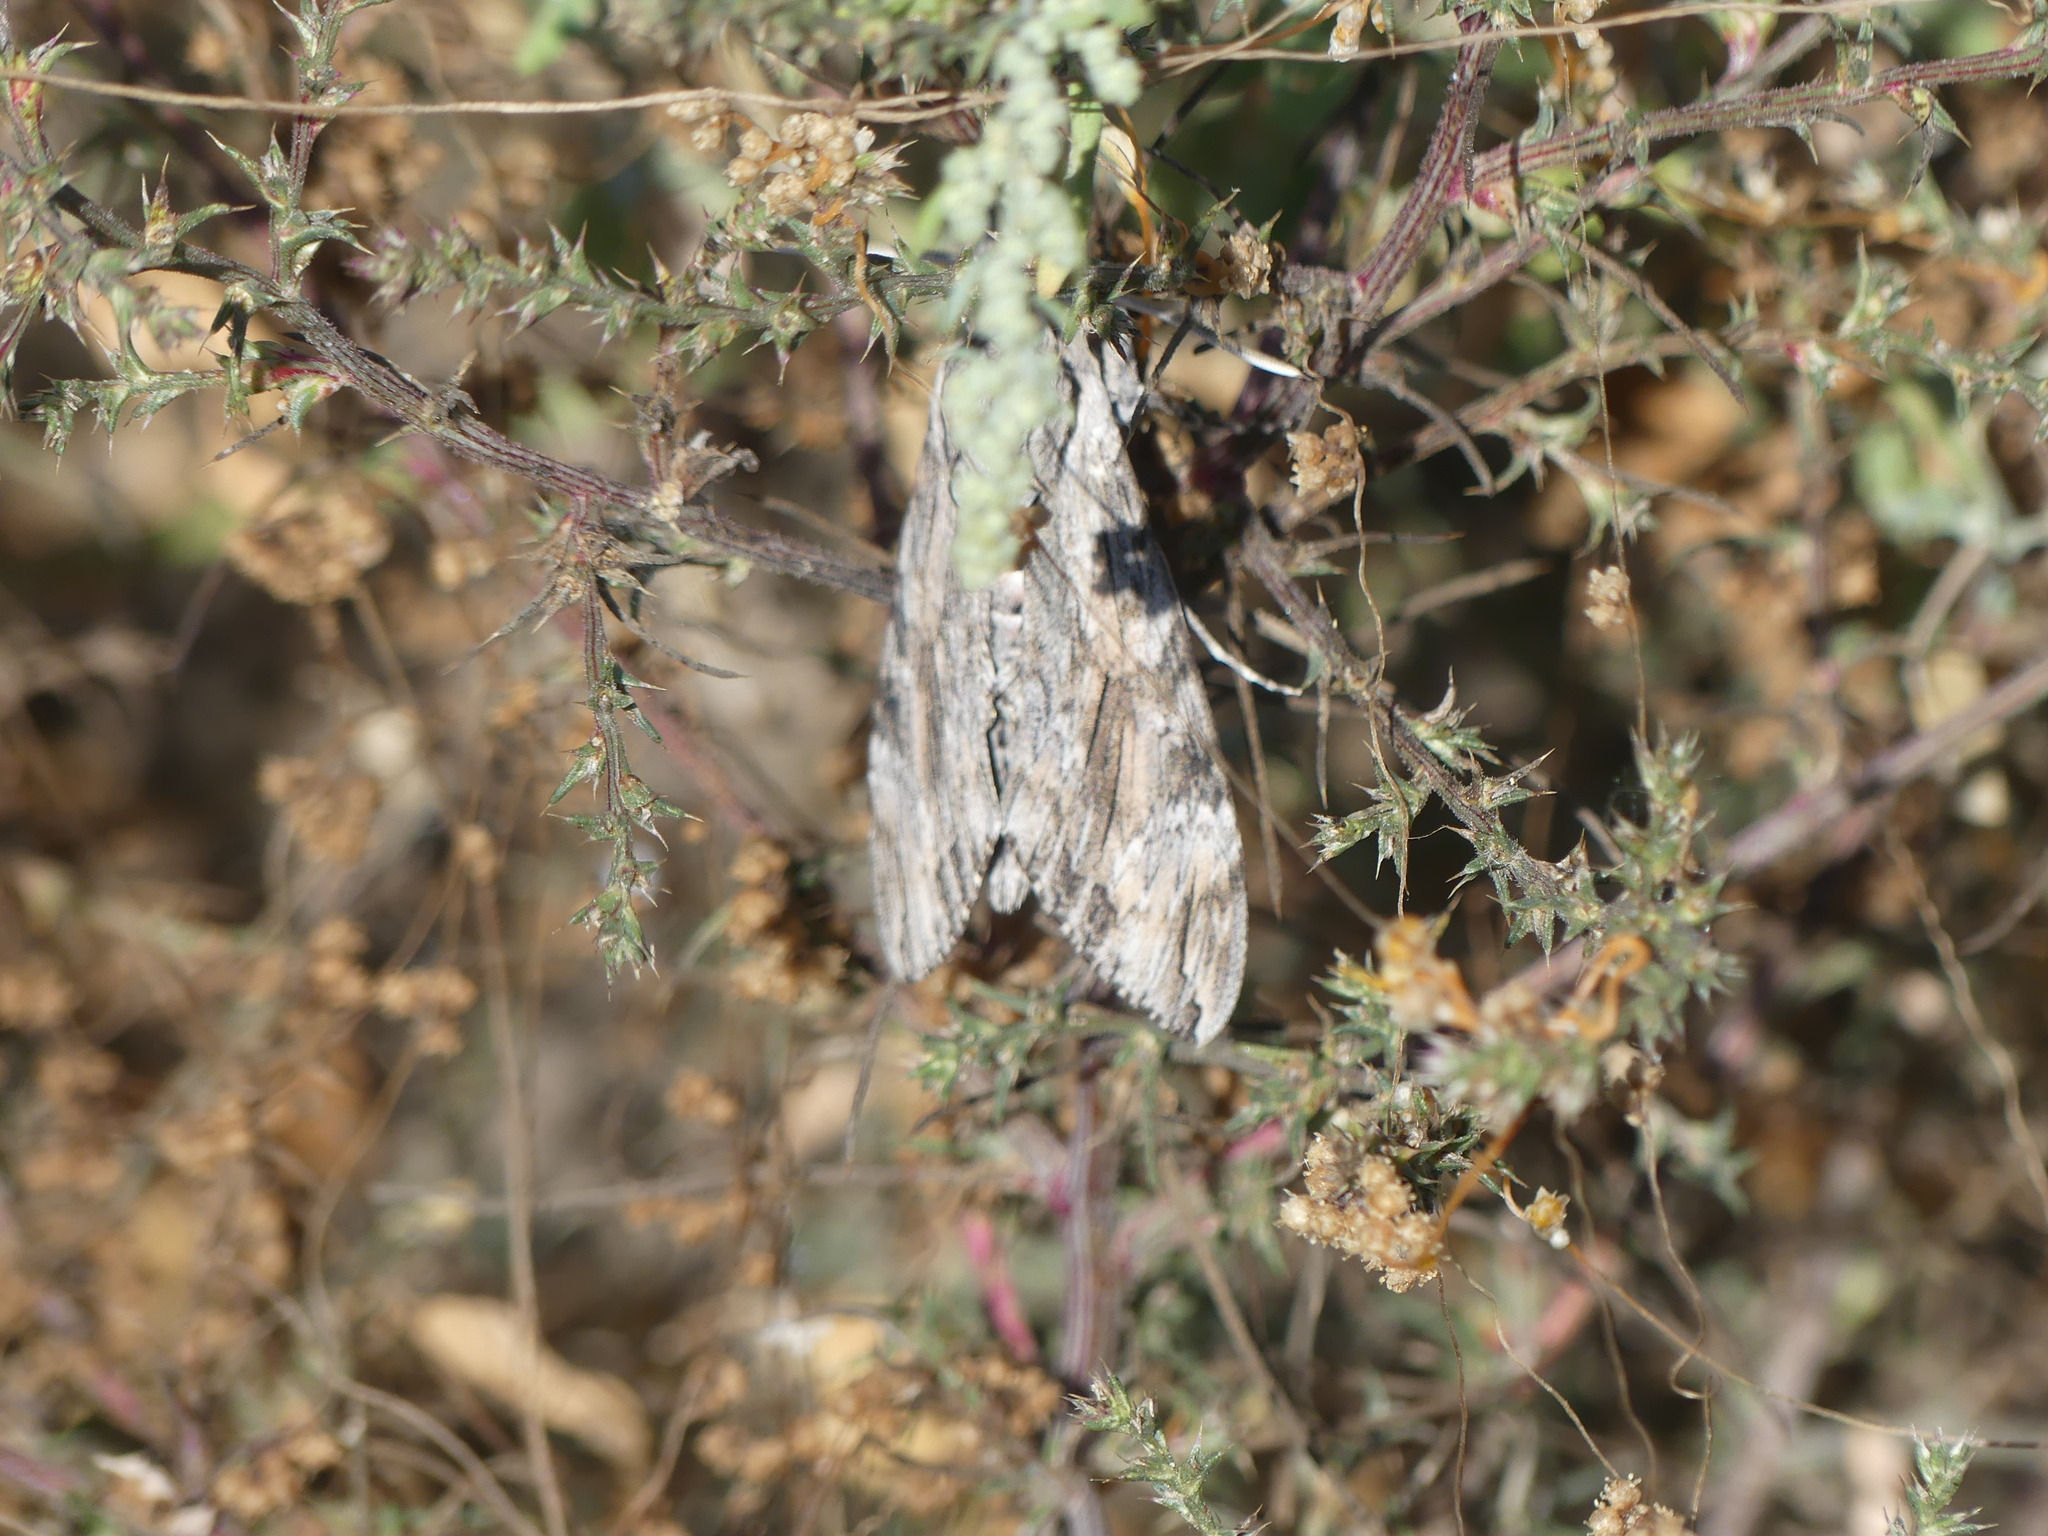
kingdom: Animalia
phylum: Arthropoda
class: Insecta
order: Lepidoptera
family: Sphingidae
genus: Agrius
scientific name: Agrius convolvuli
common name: Convolvulus hawkmoth
